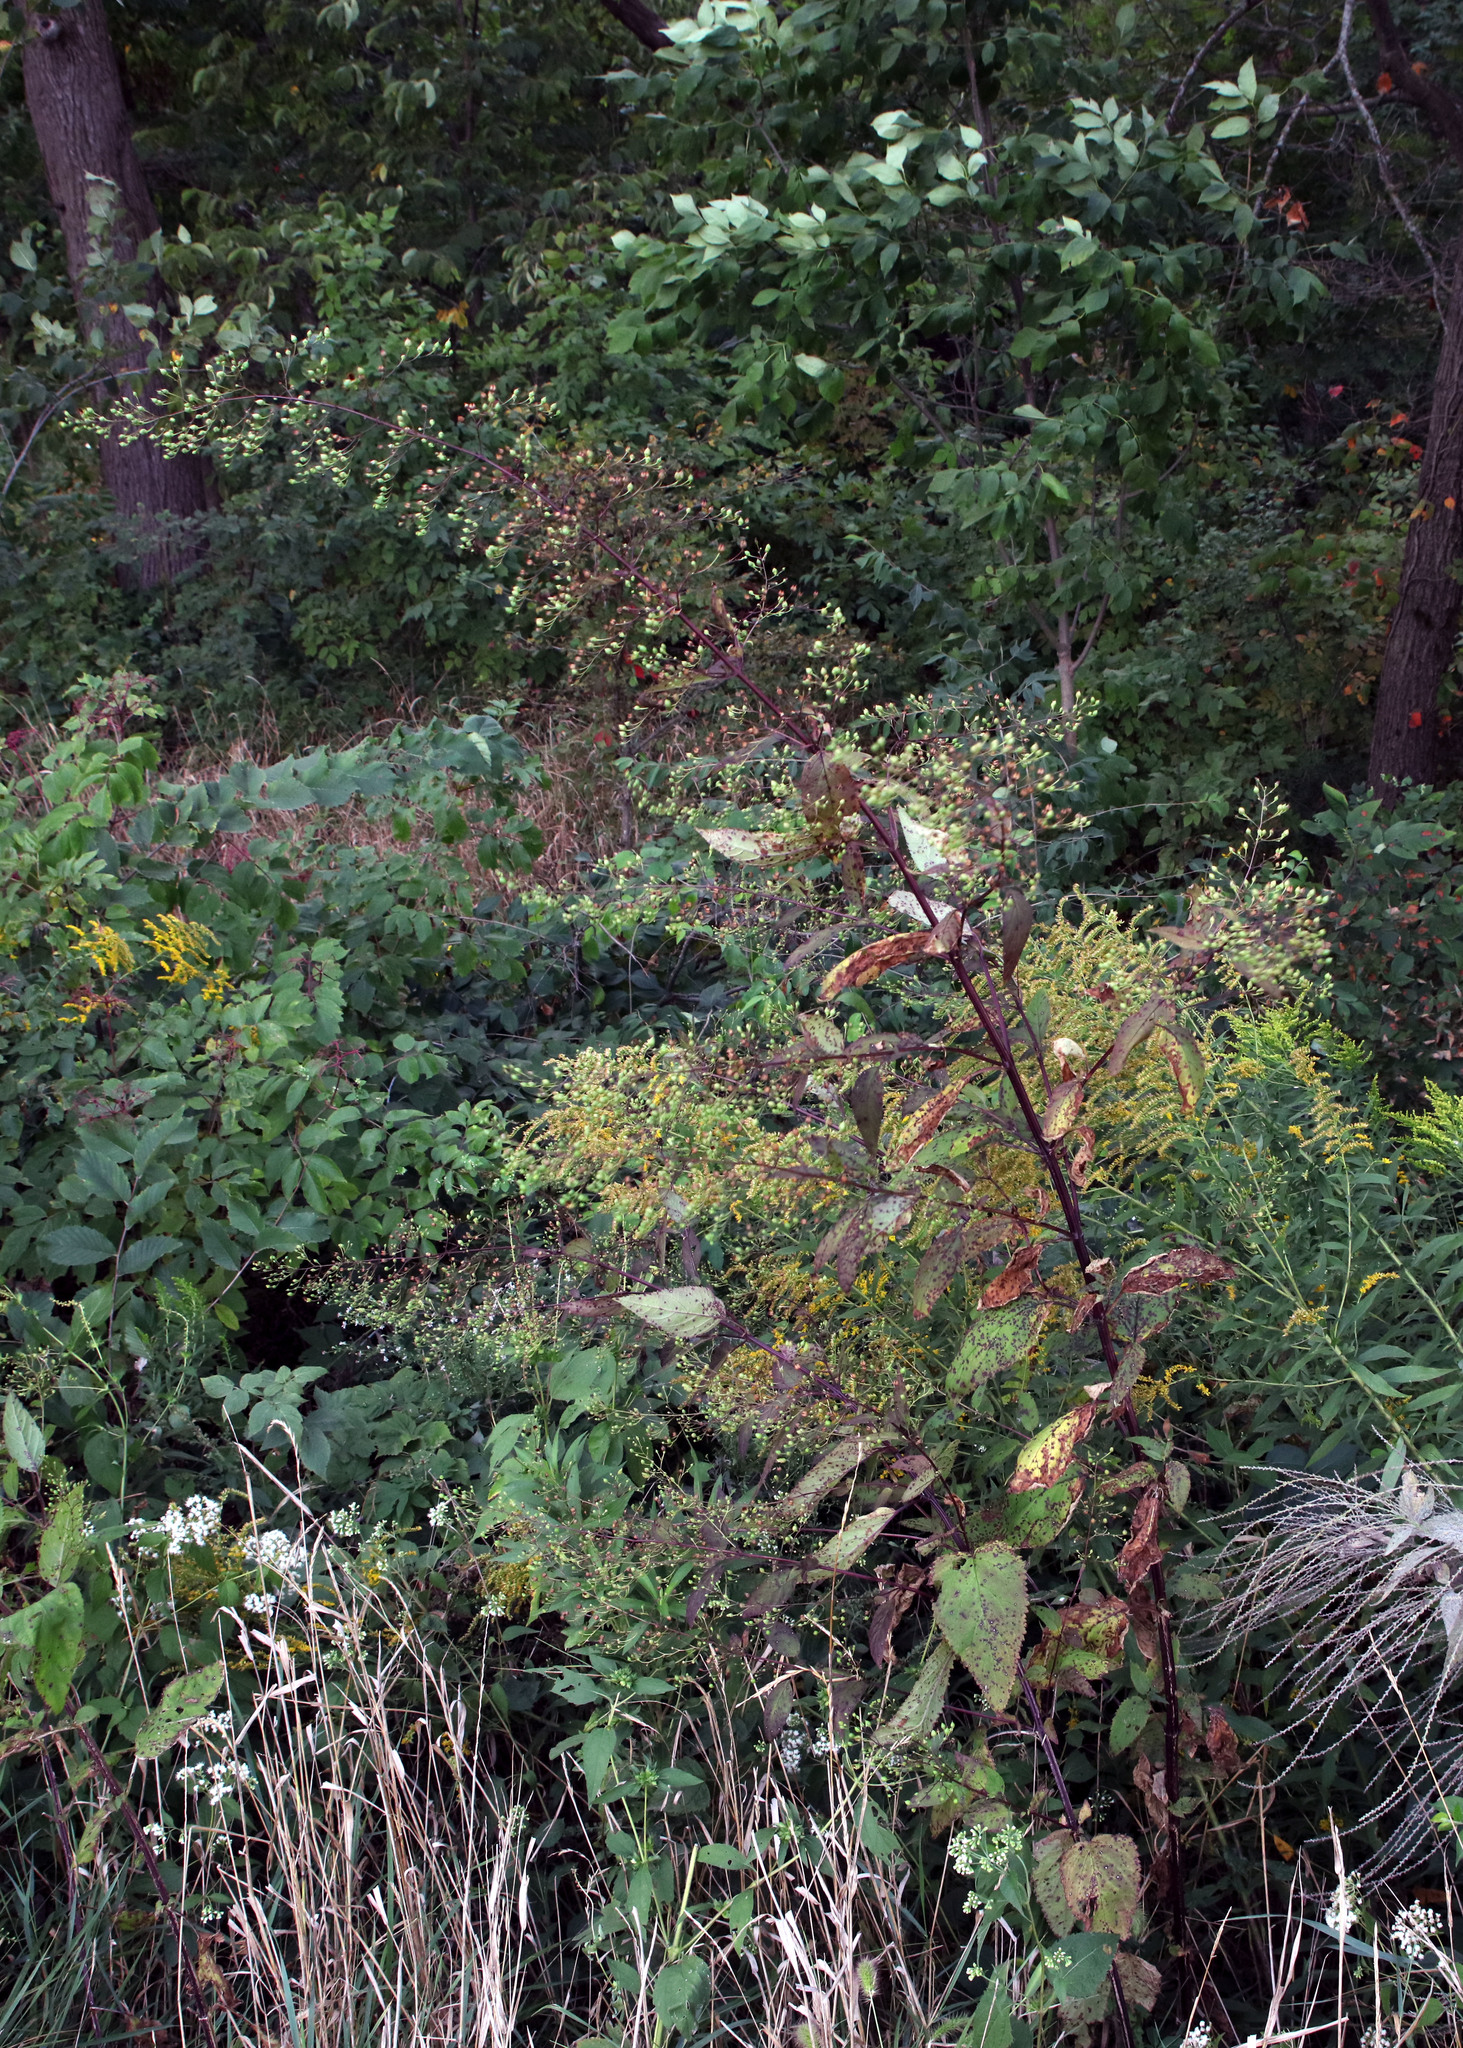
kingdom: Plantae
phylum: Tracheophyta
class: Magnoliopsida
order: Lamiales
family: Scrophulariaceae
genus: Scrophularia
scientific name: Scrophularia marilandica
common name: Eastern figwort
